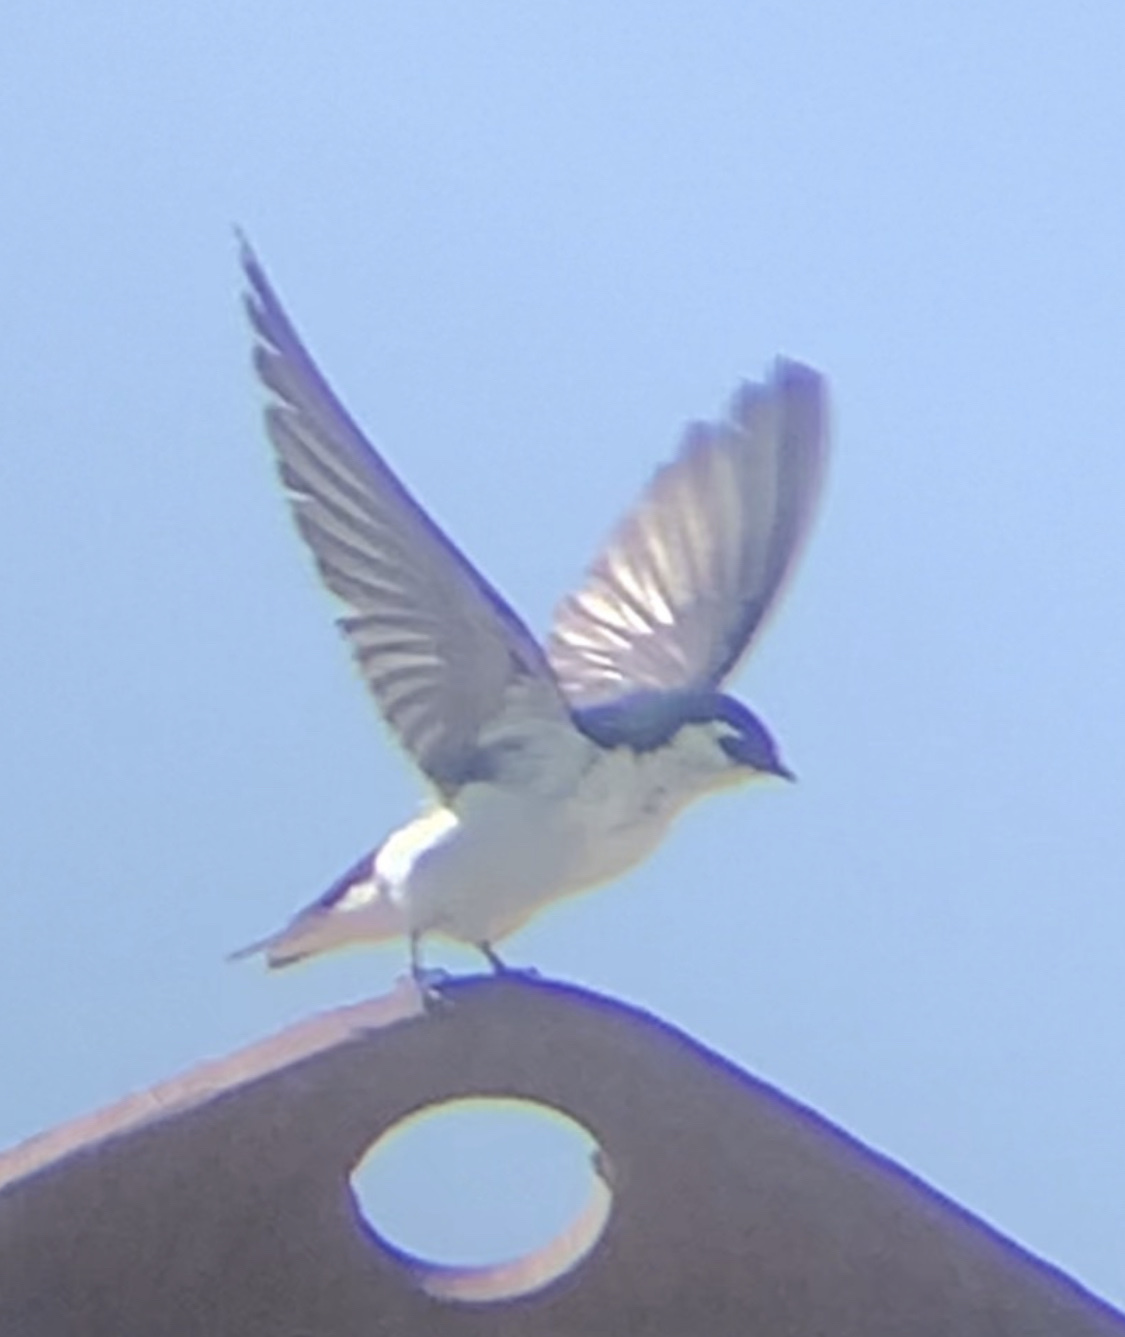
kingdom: Animalia
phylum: Chordata
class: Aves
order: Passeriformes
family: Hirundinidae
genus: Tachycineta
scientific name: Tachycineta thalassina
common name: Violet-green swallow
